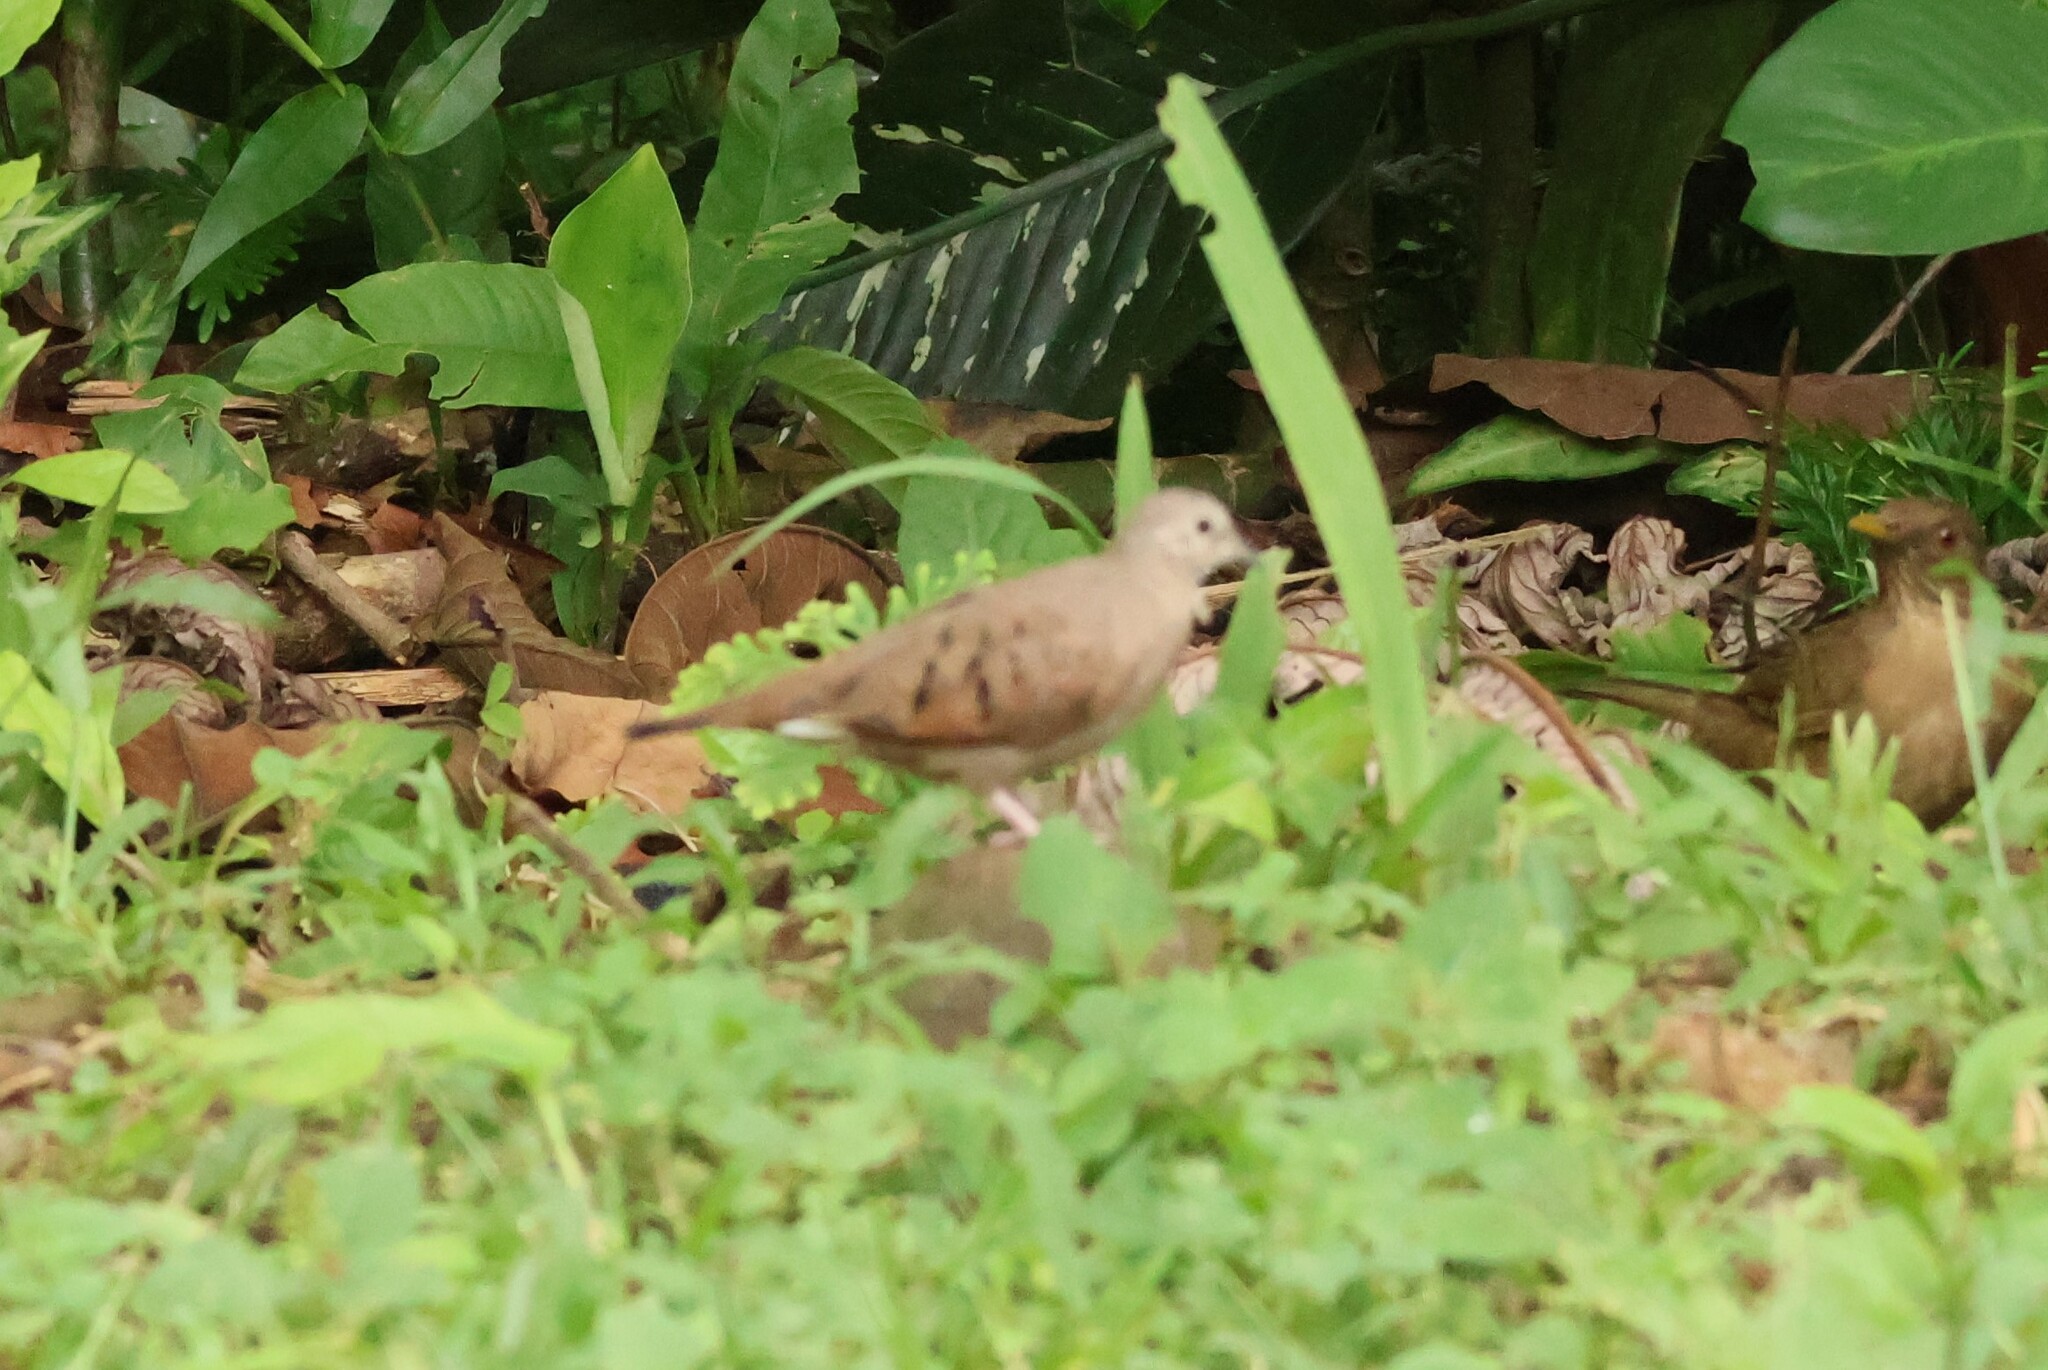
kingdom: Animalia
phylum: Chordata
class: Aves
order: Columbiformes
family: Columbidae
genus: Columbina
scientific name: Columbina talpacoti
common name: Ruddy ground dove
